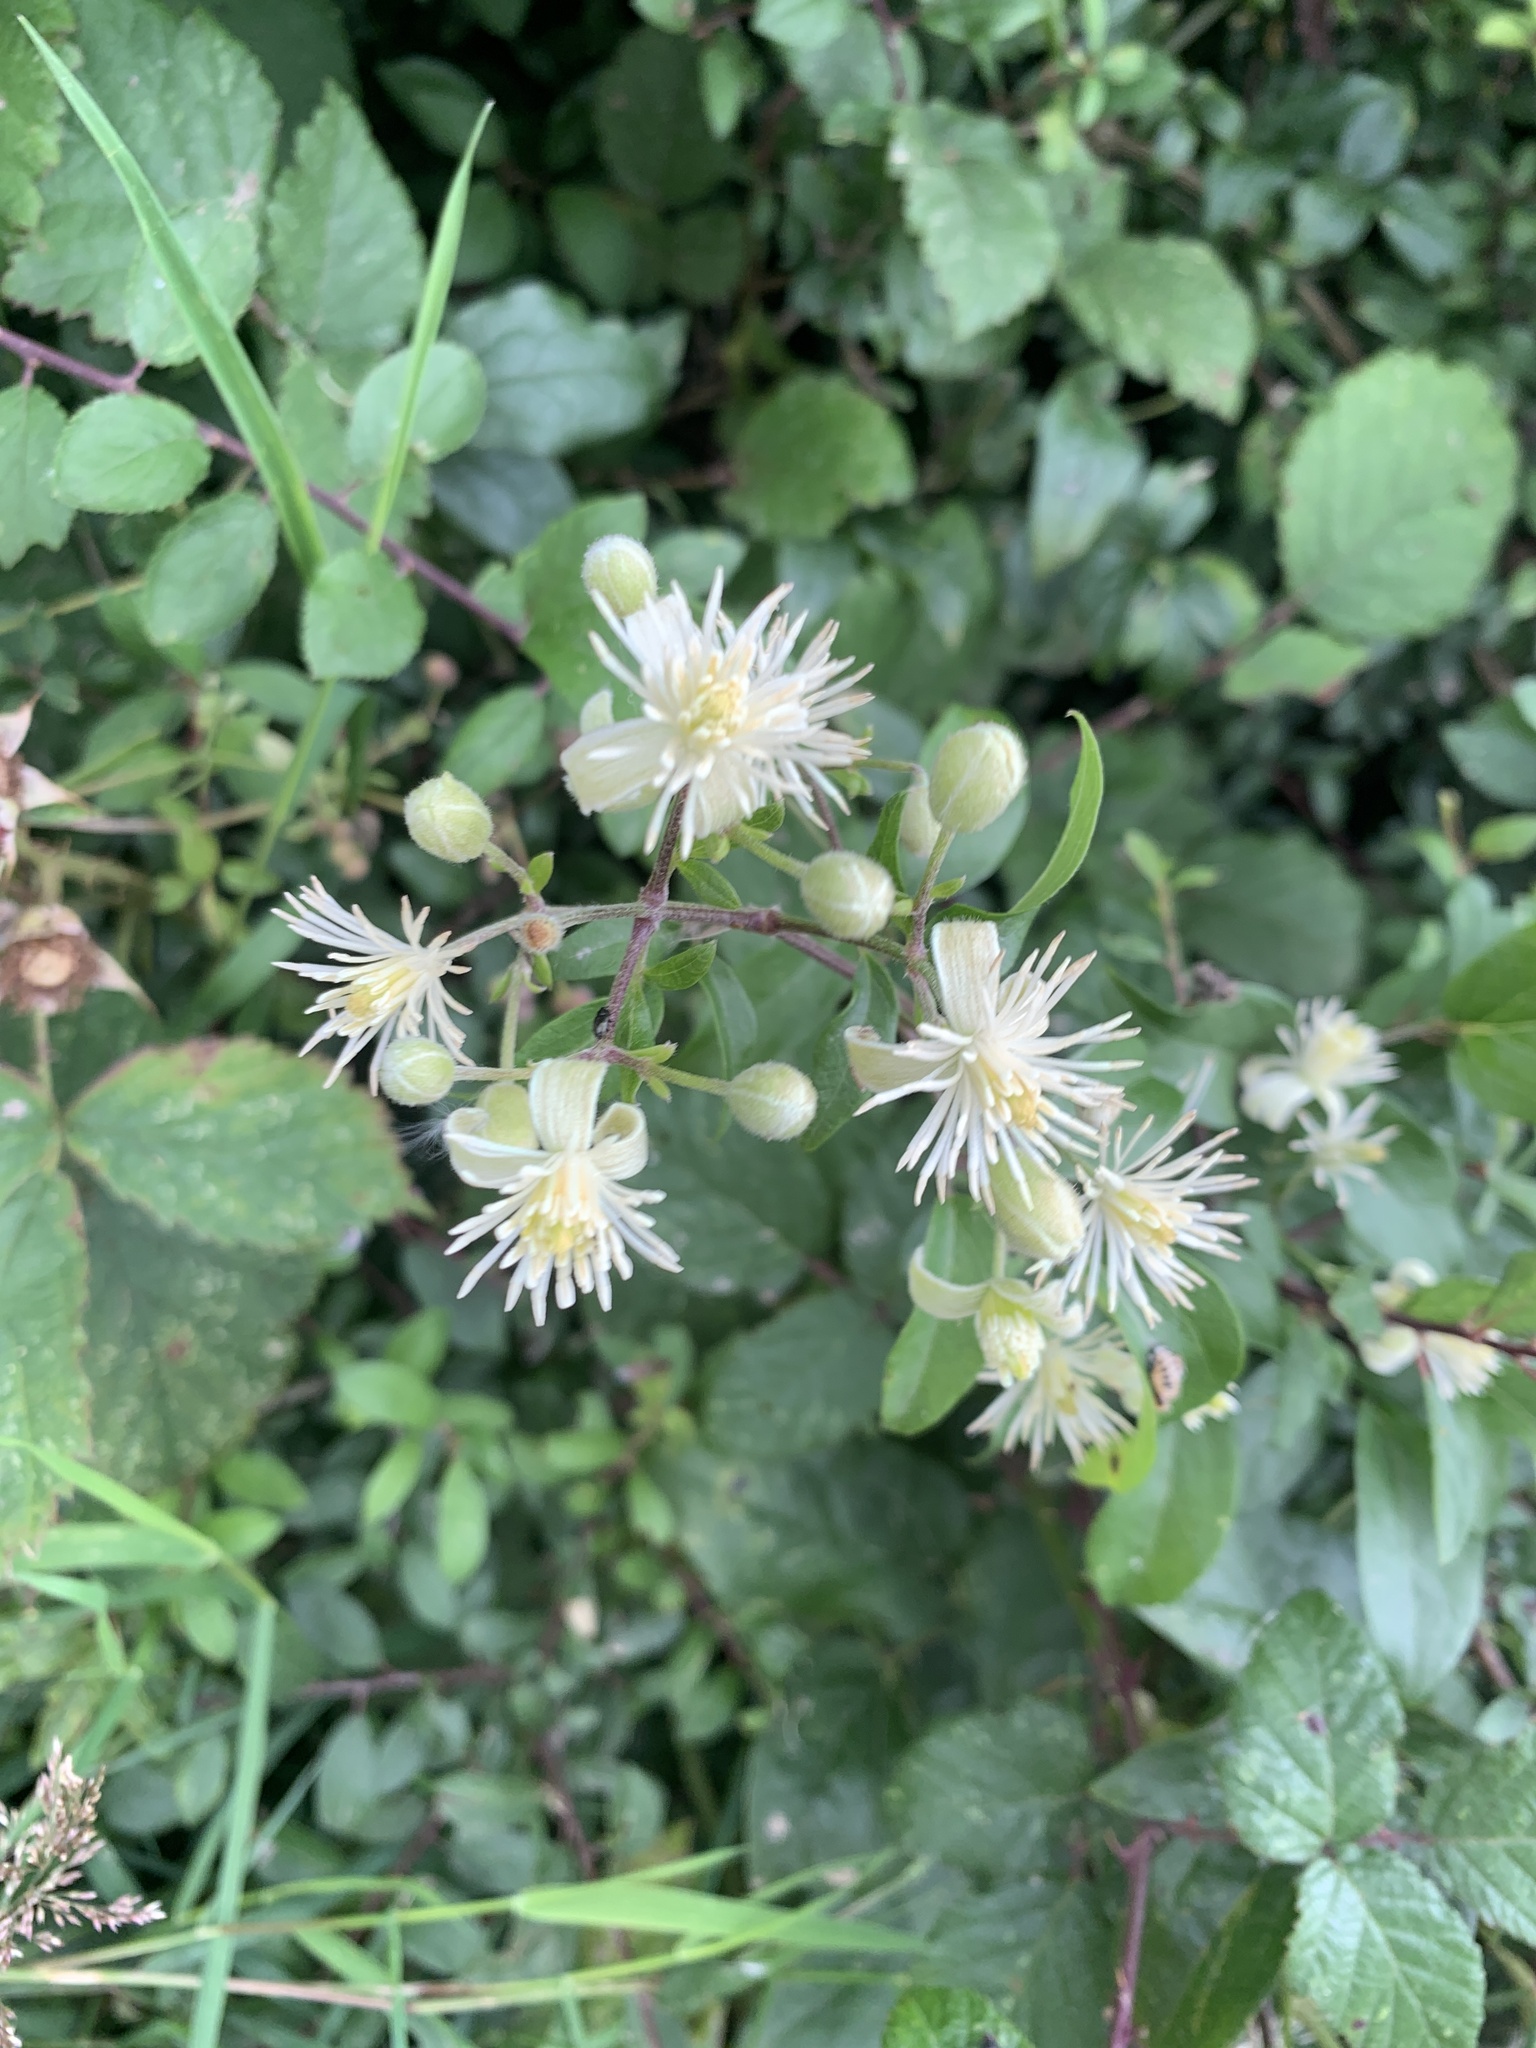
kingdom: Plantae
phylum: Tracheophyta
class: Magnoliopsida
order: Ranunculales
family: Ranunculaceae
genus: Clematis
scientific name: Clematis vitalba
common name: Evergreen clematis
